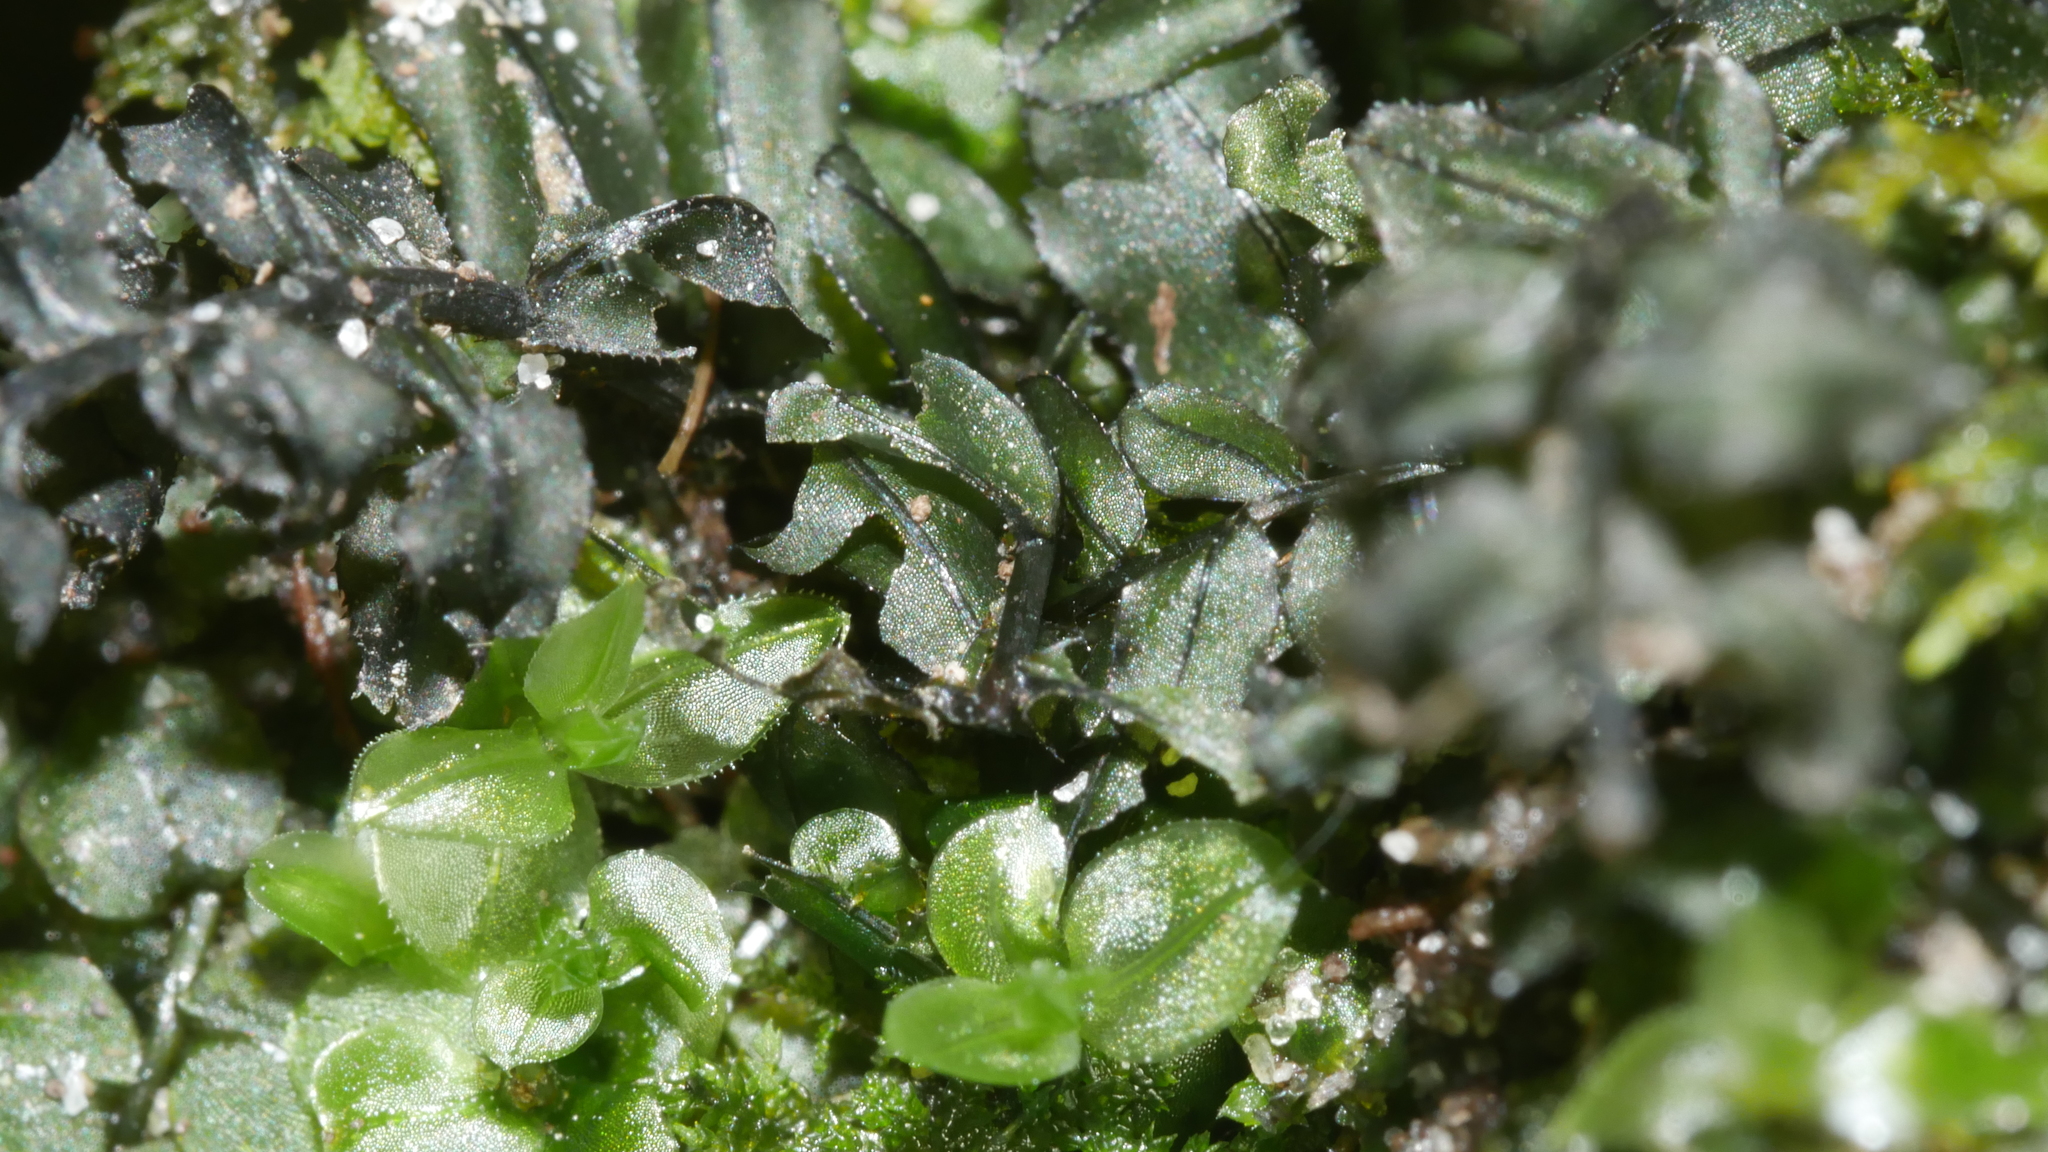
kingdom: Plantae
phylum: Bryophyta
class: Bryopsida
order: Bryales
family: Mniaceae
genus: Plagiomnium
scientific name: Plagiomnium
